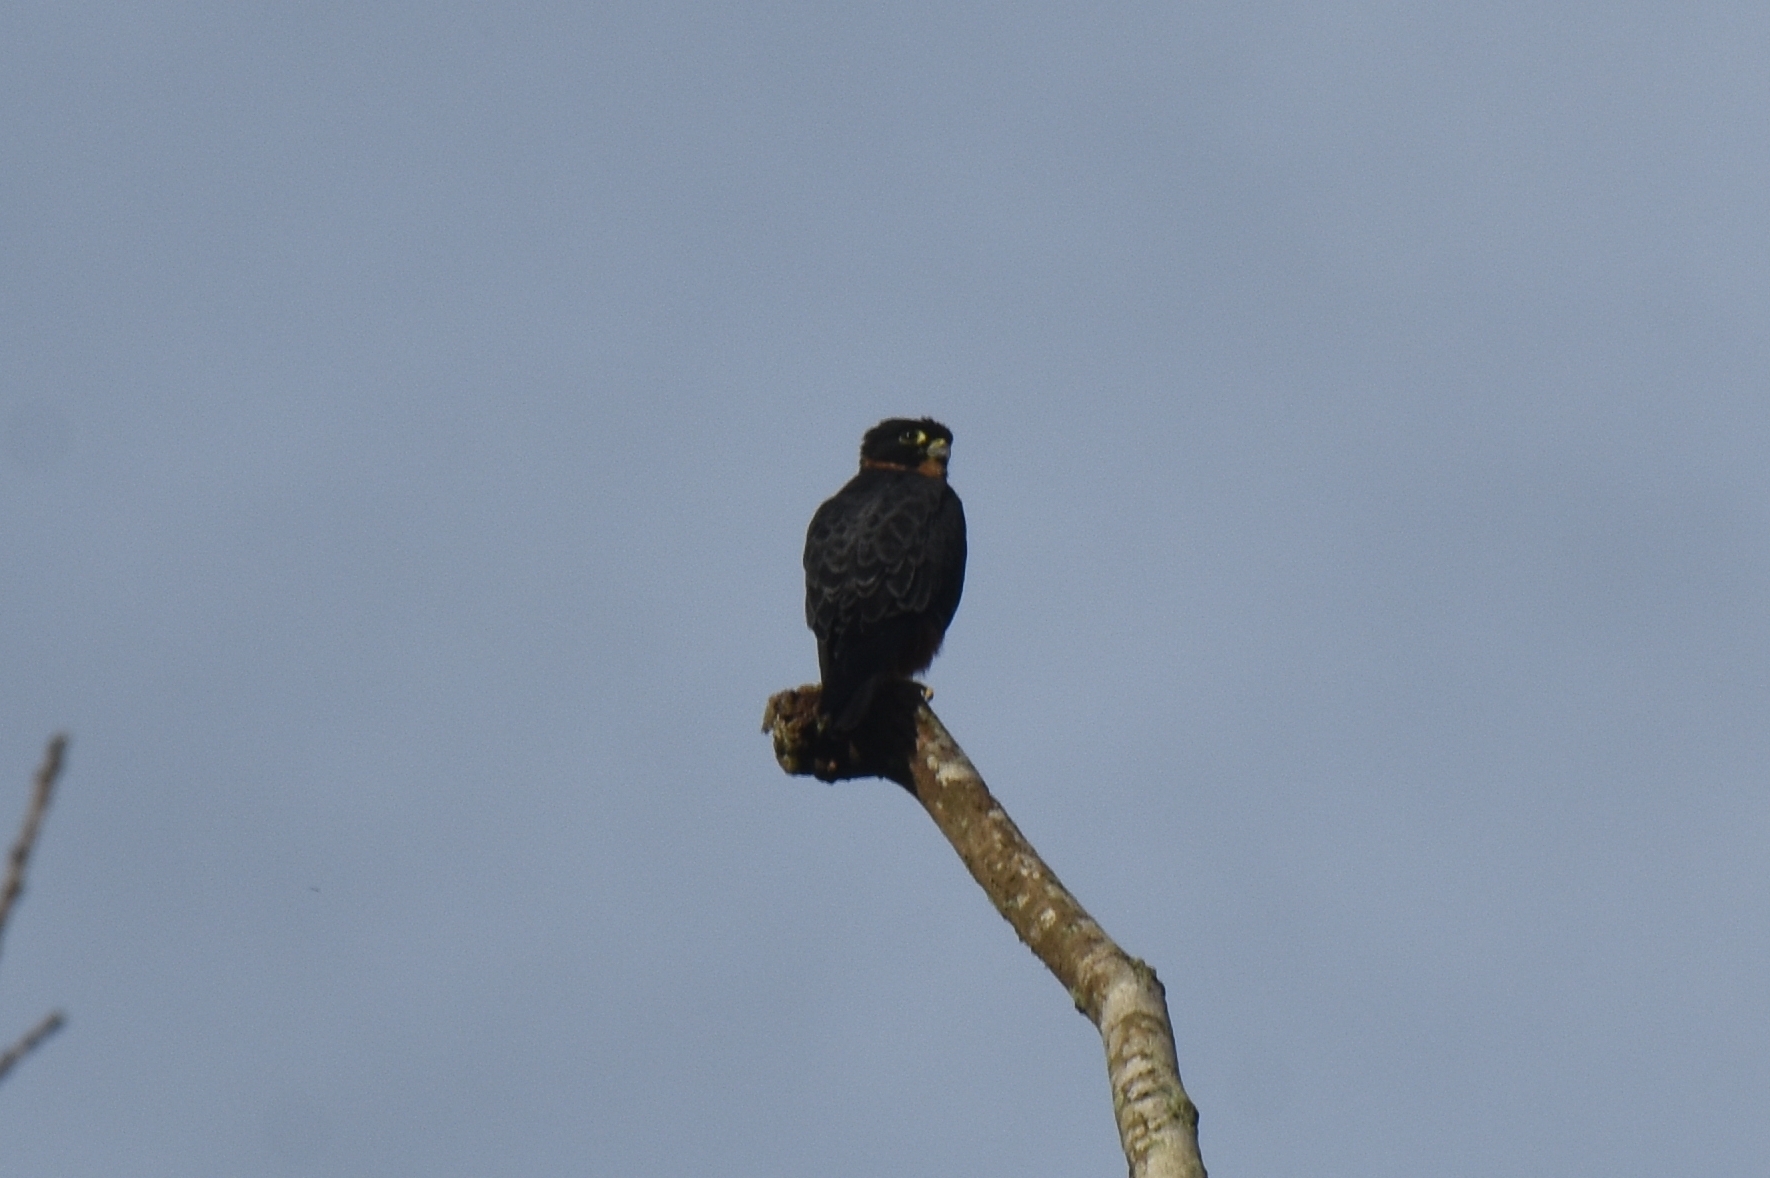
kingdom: Animalia
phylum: Chordata
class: Aves
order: Falconiformes
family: Falconidae
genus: Falco
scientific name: Falco rufigularis
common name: Bat falcon
